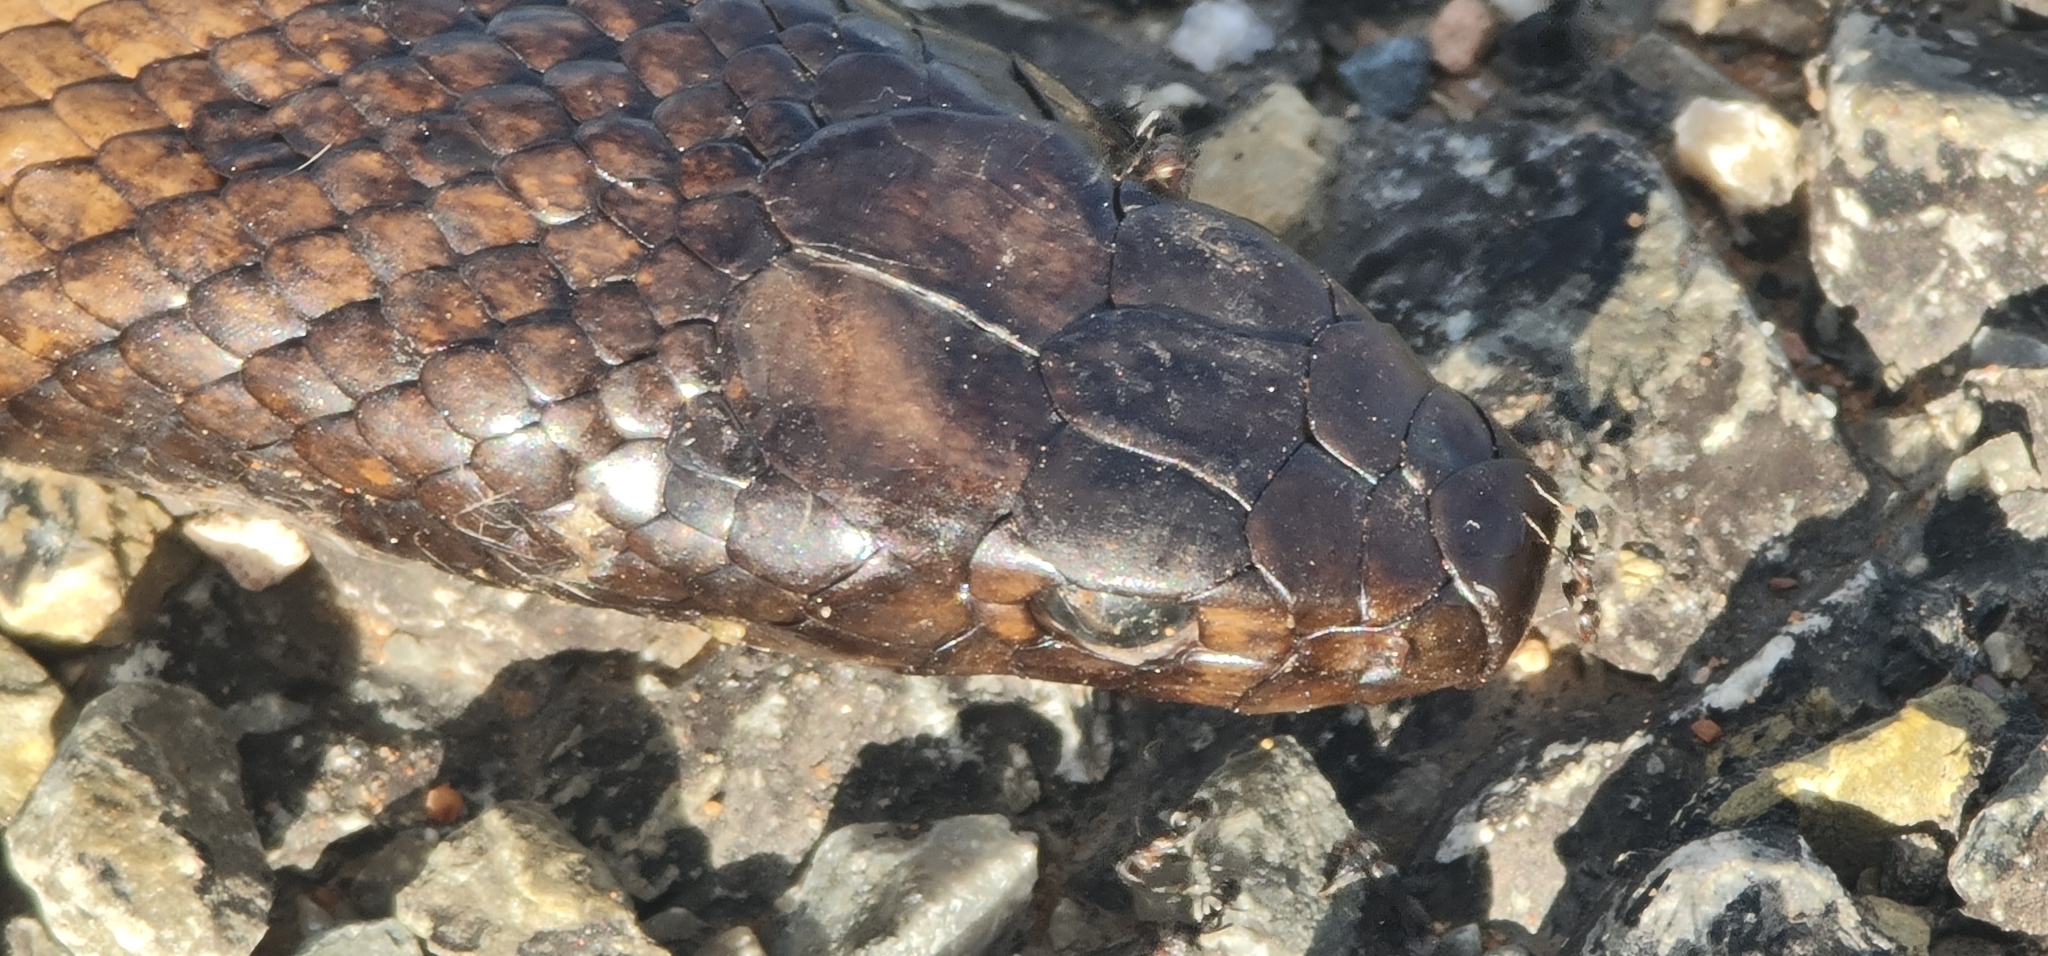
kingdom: Animalia
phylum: Chordata
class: Squamata
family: Elapidae
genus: Pseudonaja
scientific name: Pseudonaja aspidorhyncha
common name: Strap-snouted brown snake
